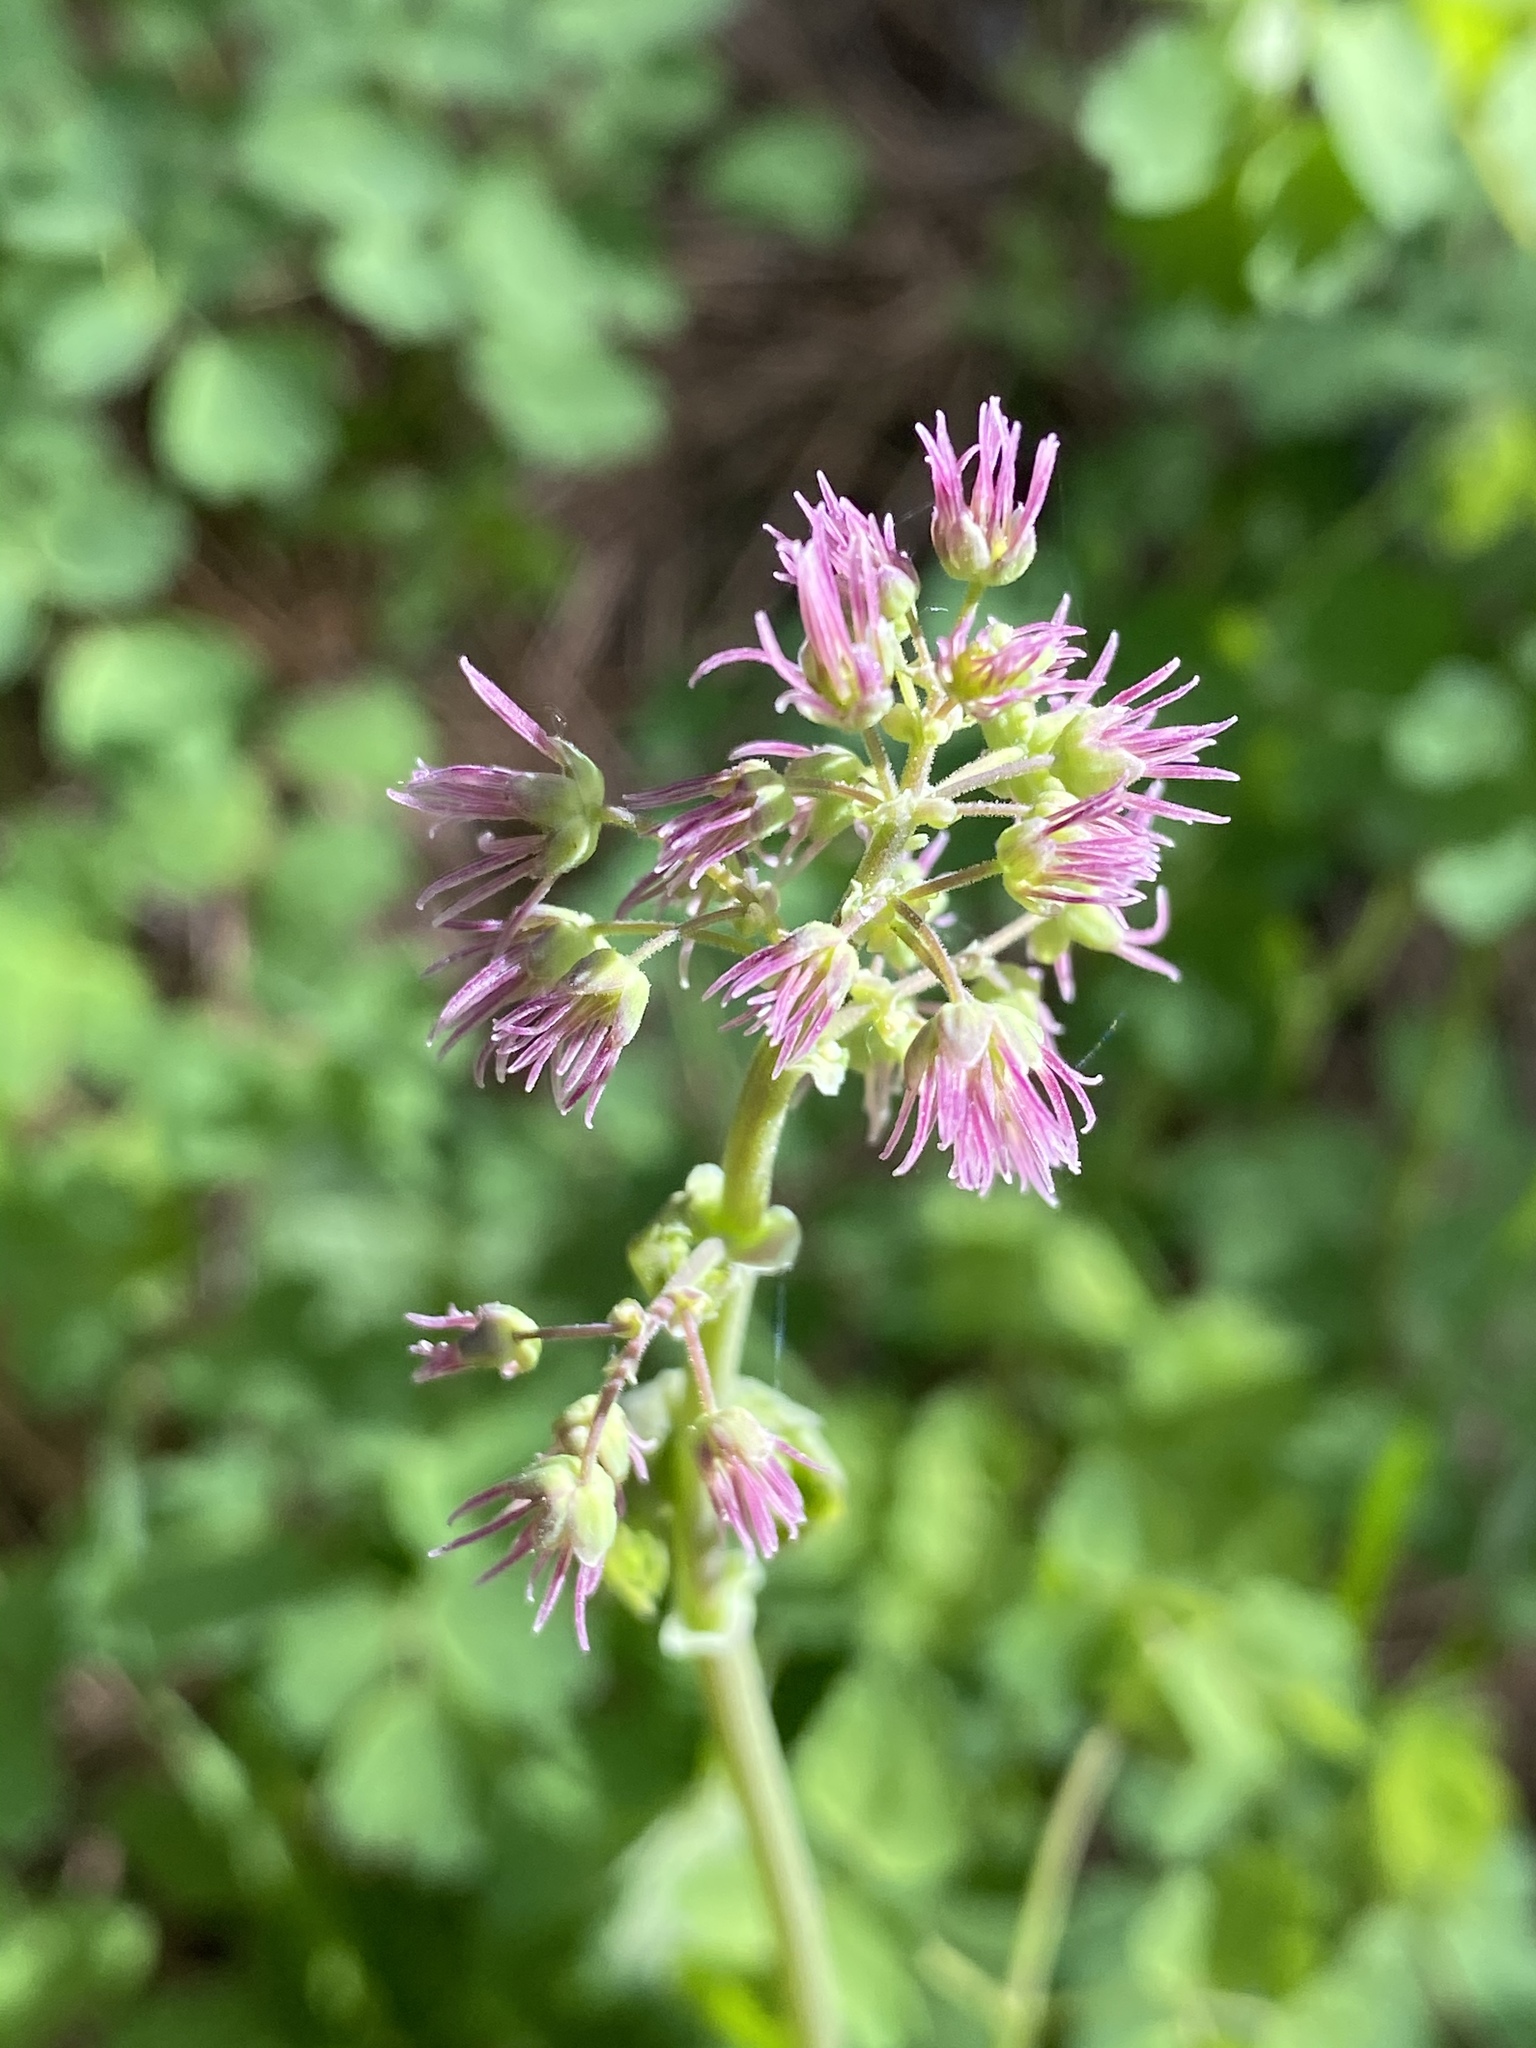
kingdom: Plantae
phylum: Tracheophyta
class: Magnoliopsida
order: Ranunculales
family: Ranunculaceae
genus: Thalictrum
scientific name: Thalictrum occidentale
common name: Western meadow-rue
